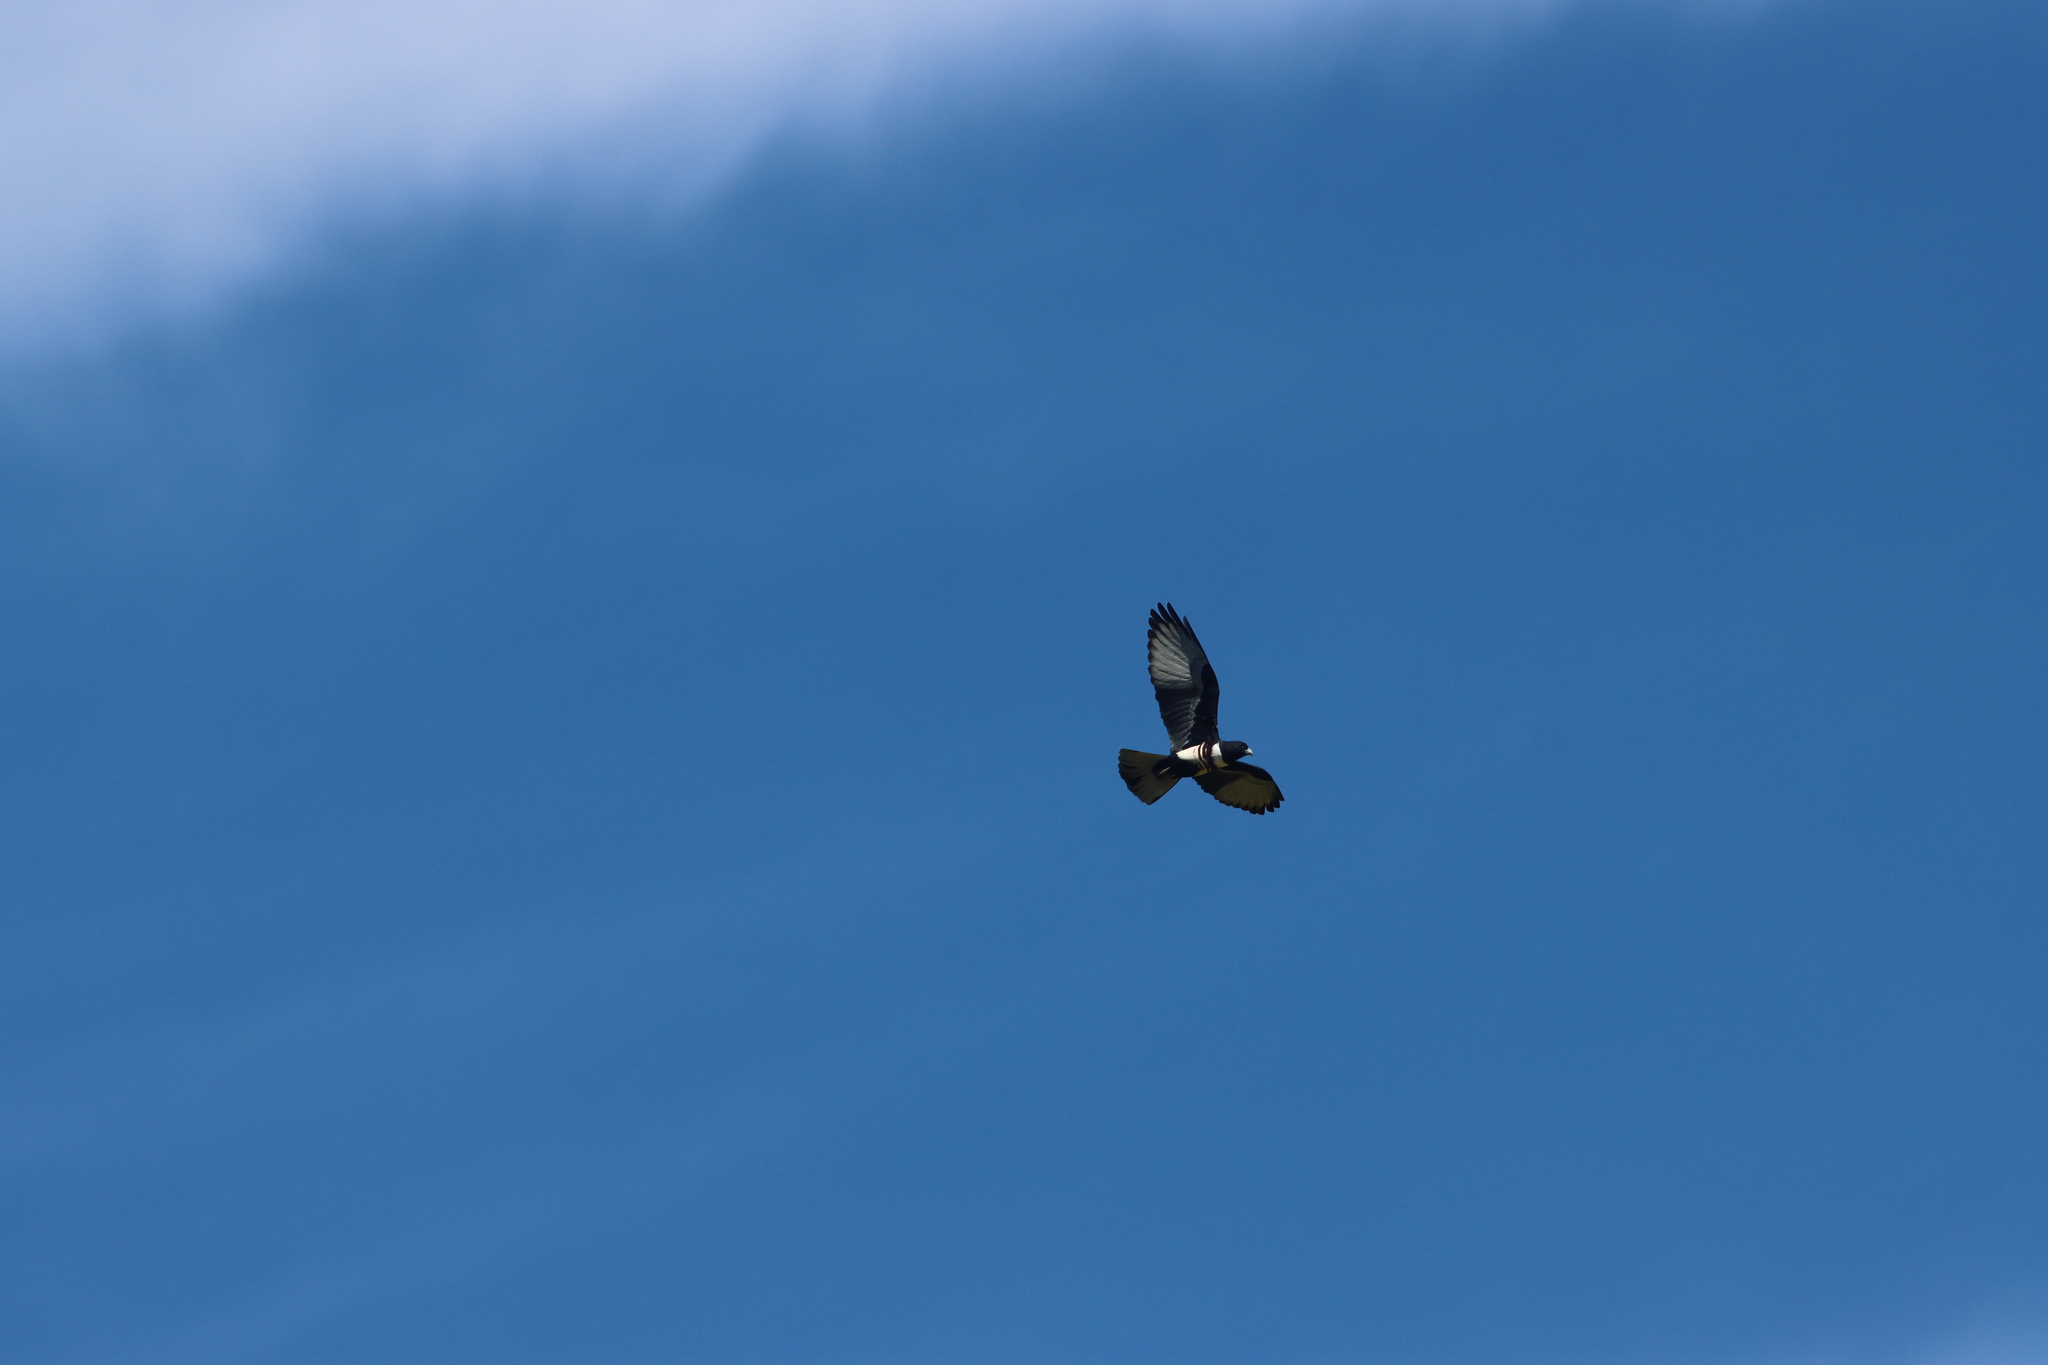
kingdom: Animalia
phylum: Chordata
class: Aves
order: Accipitriformes
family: Accipitridae
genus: Aviceda
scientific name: Aviceda leuphotes
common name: Black baza
